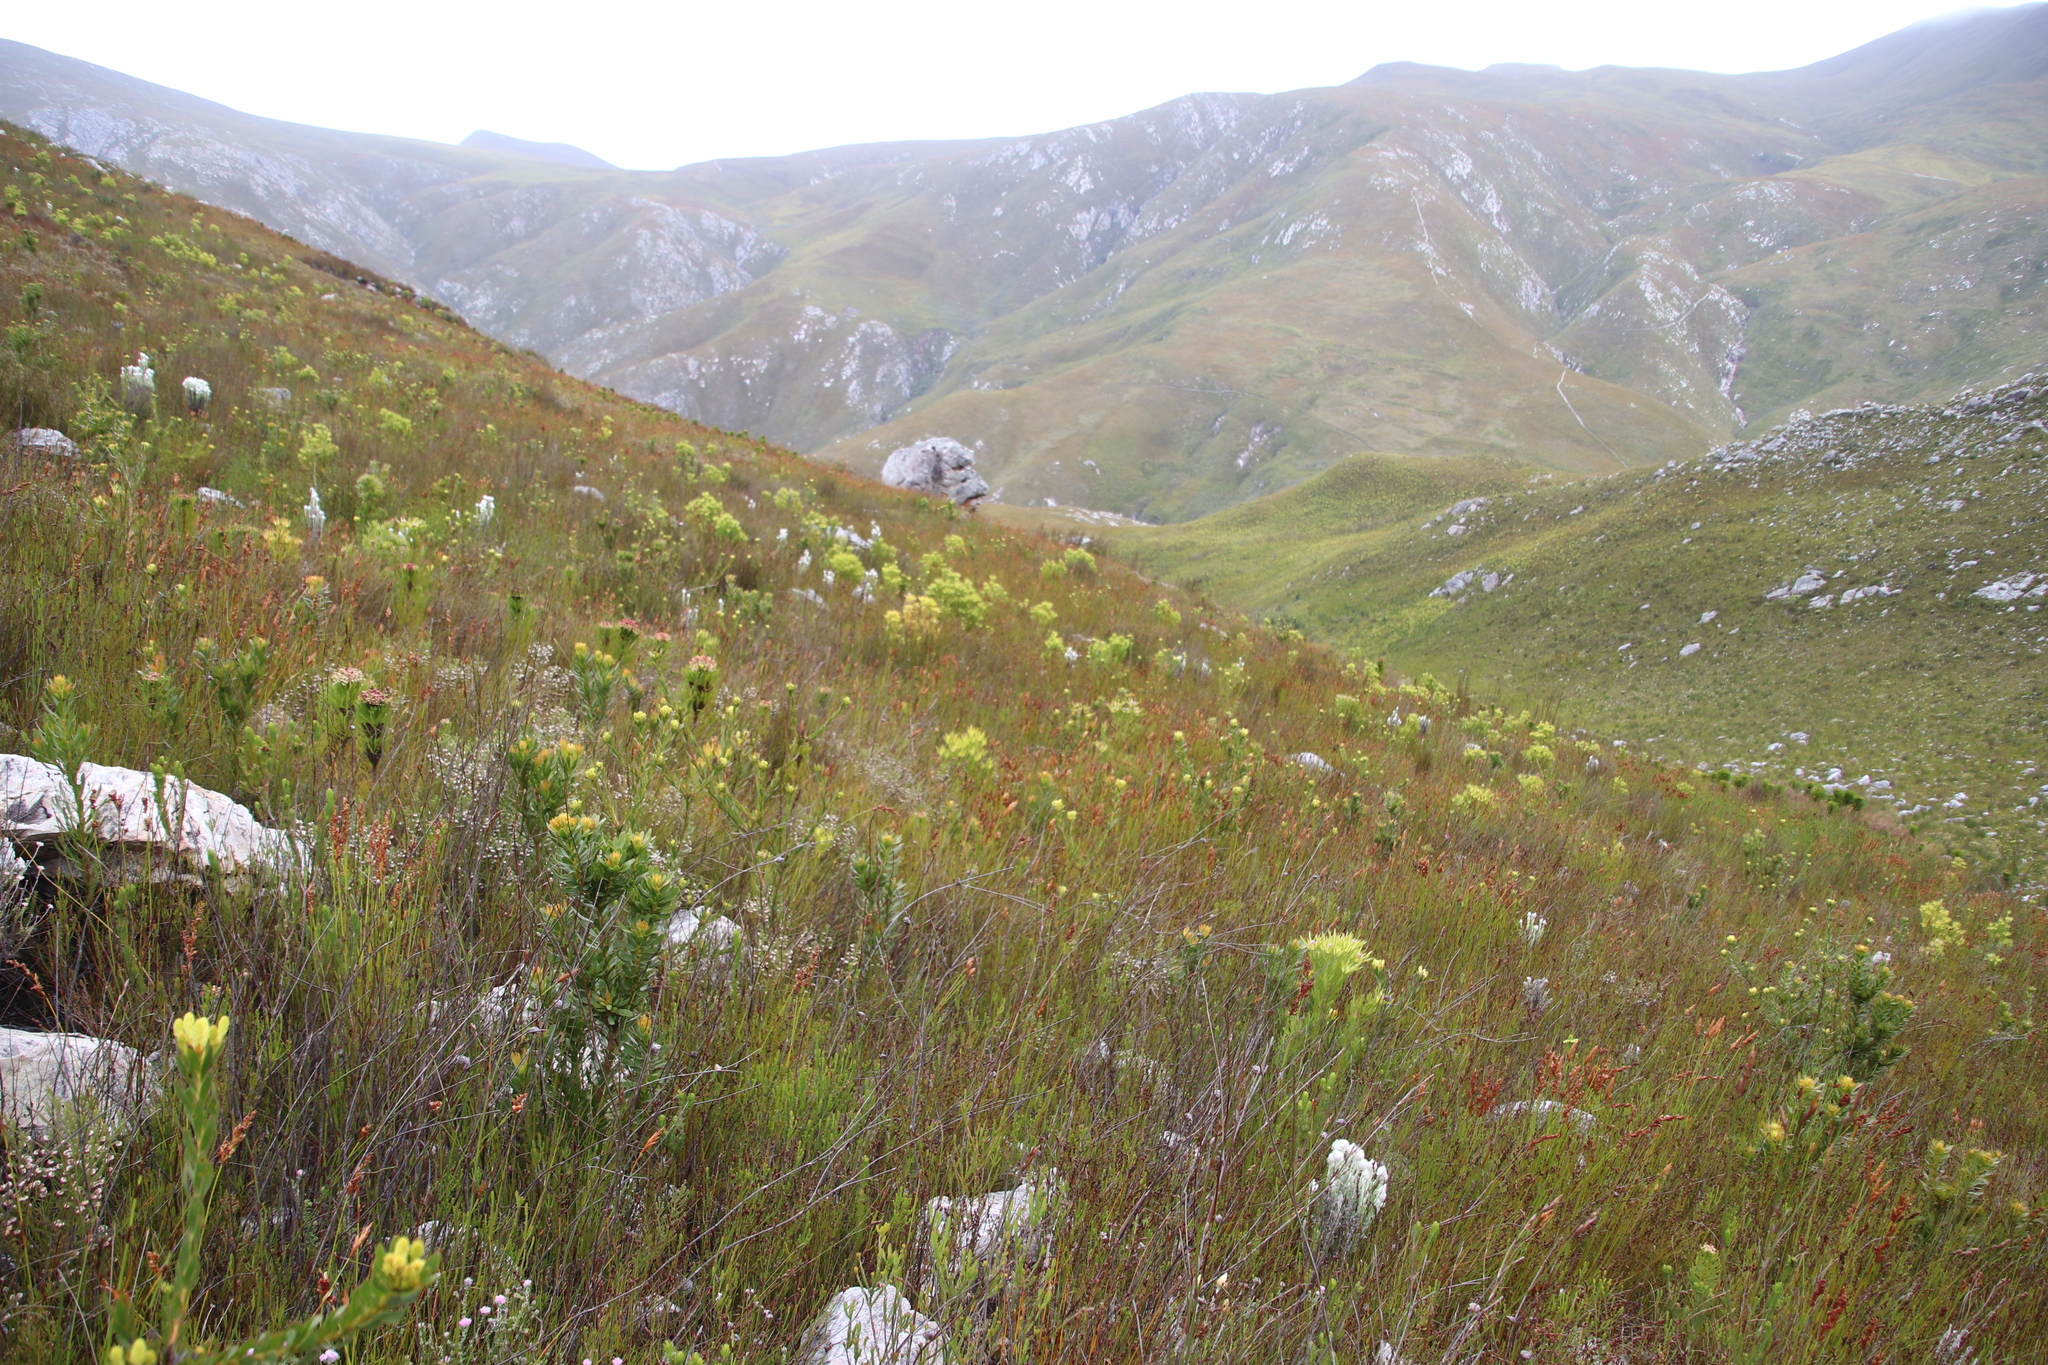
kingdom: Plantae
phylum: Tracheophyta
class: Magnoliopsida
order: Proteales
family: Proteaceae
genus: Aulax
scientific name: Aulax umbellata
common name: Broad-leaf featherbush
